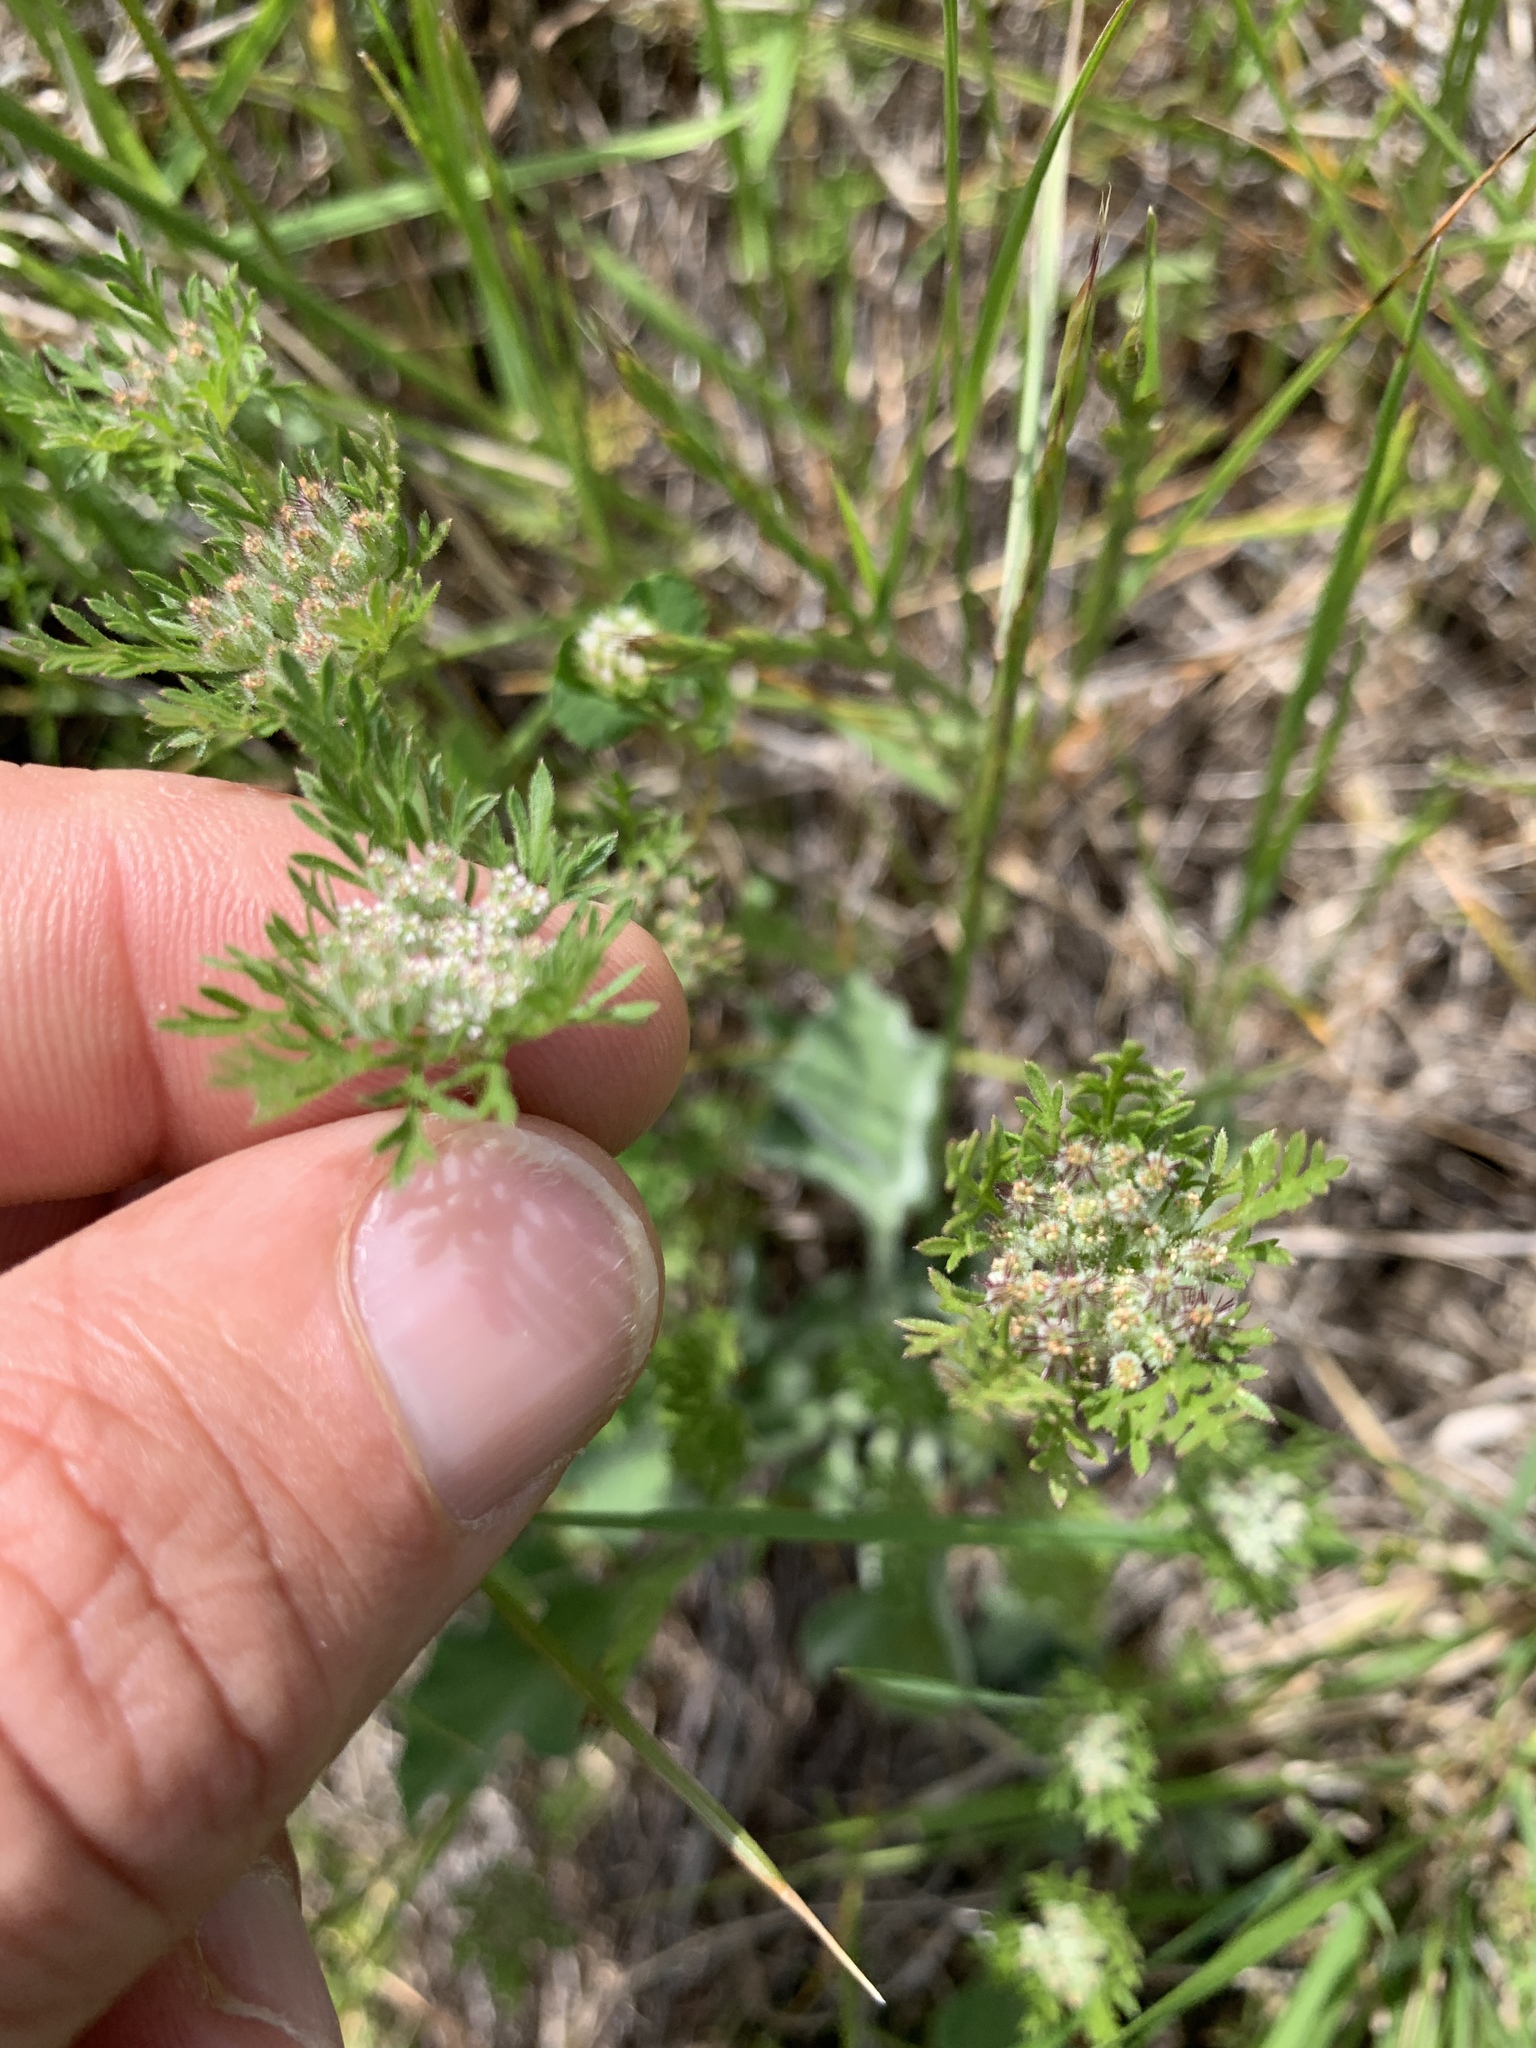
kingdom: Plantae
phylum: Tracheophyta
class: Magnoliopsida
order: Apiales
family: Apiaceae
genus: Daucus
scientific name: Daucus pusillus
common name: Southwest wild carrot
